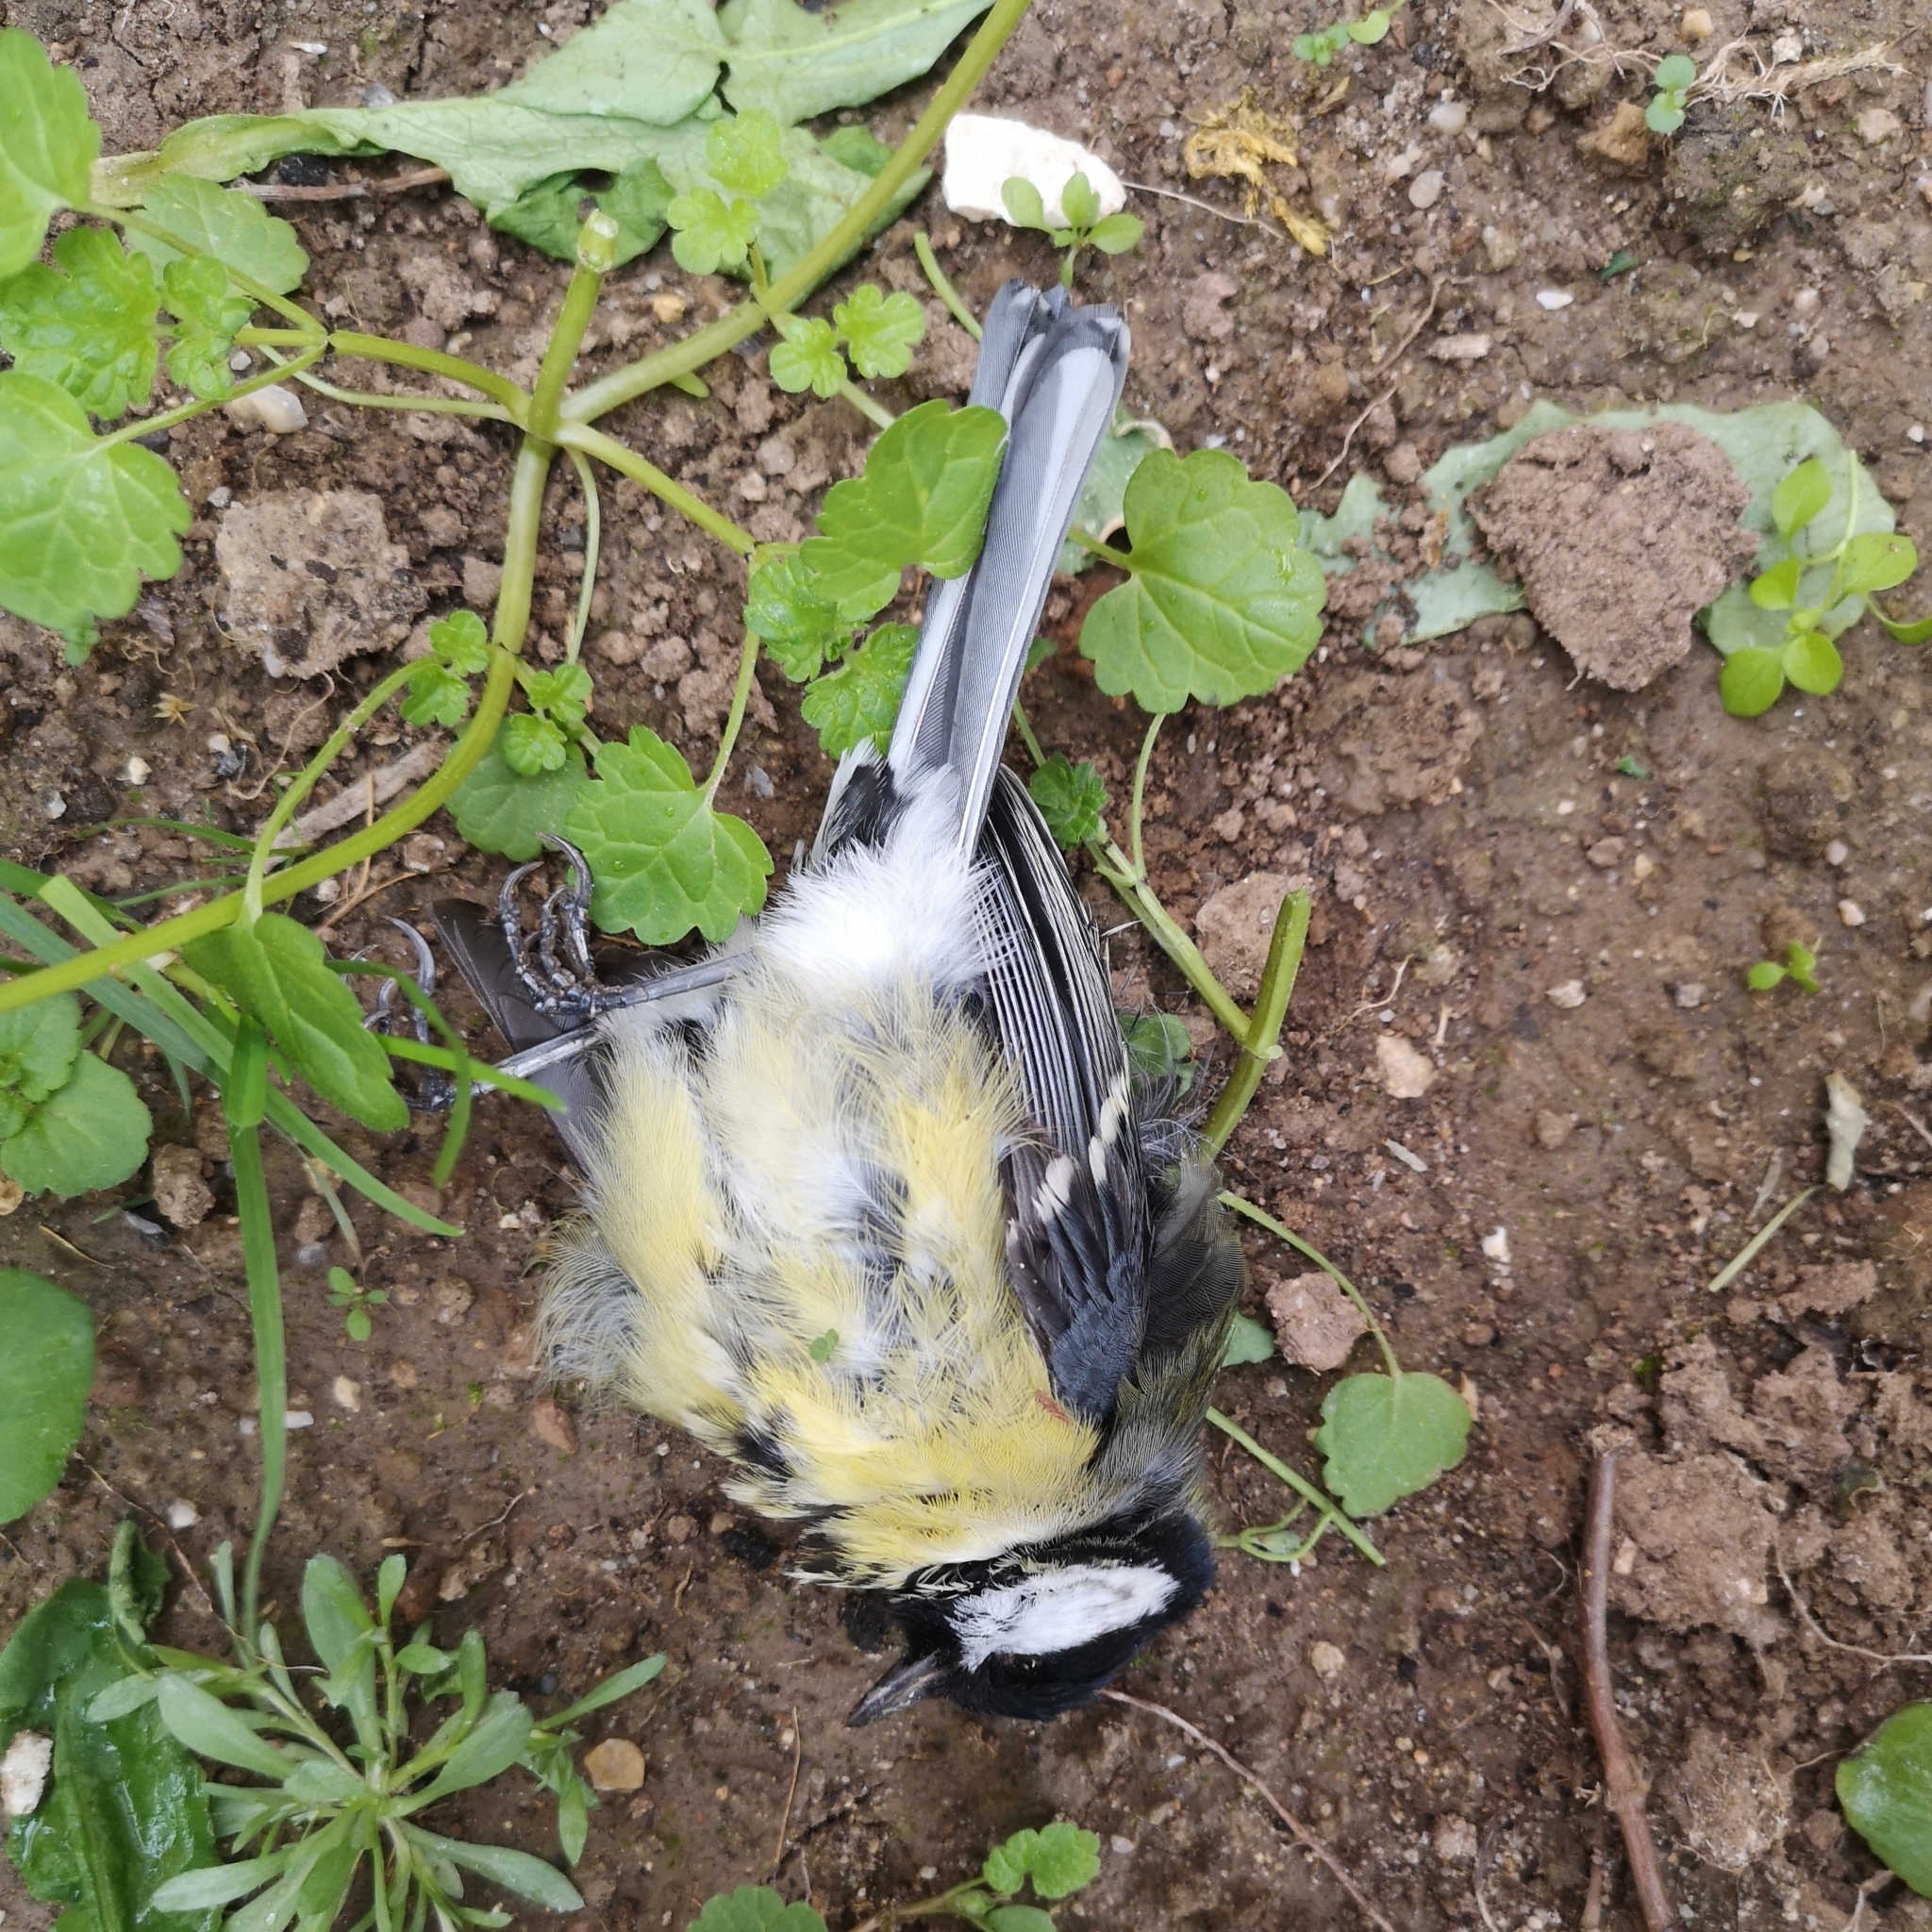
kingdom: Animalia
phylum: Chordata
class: Aves
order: Passeriformes
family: Paridae
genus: Parus
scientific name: Parus major
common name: Great tit
